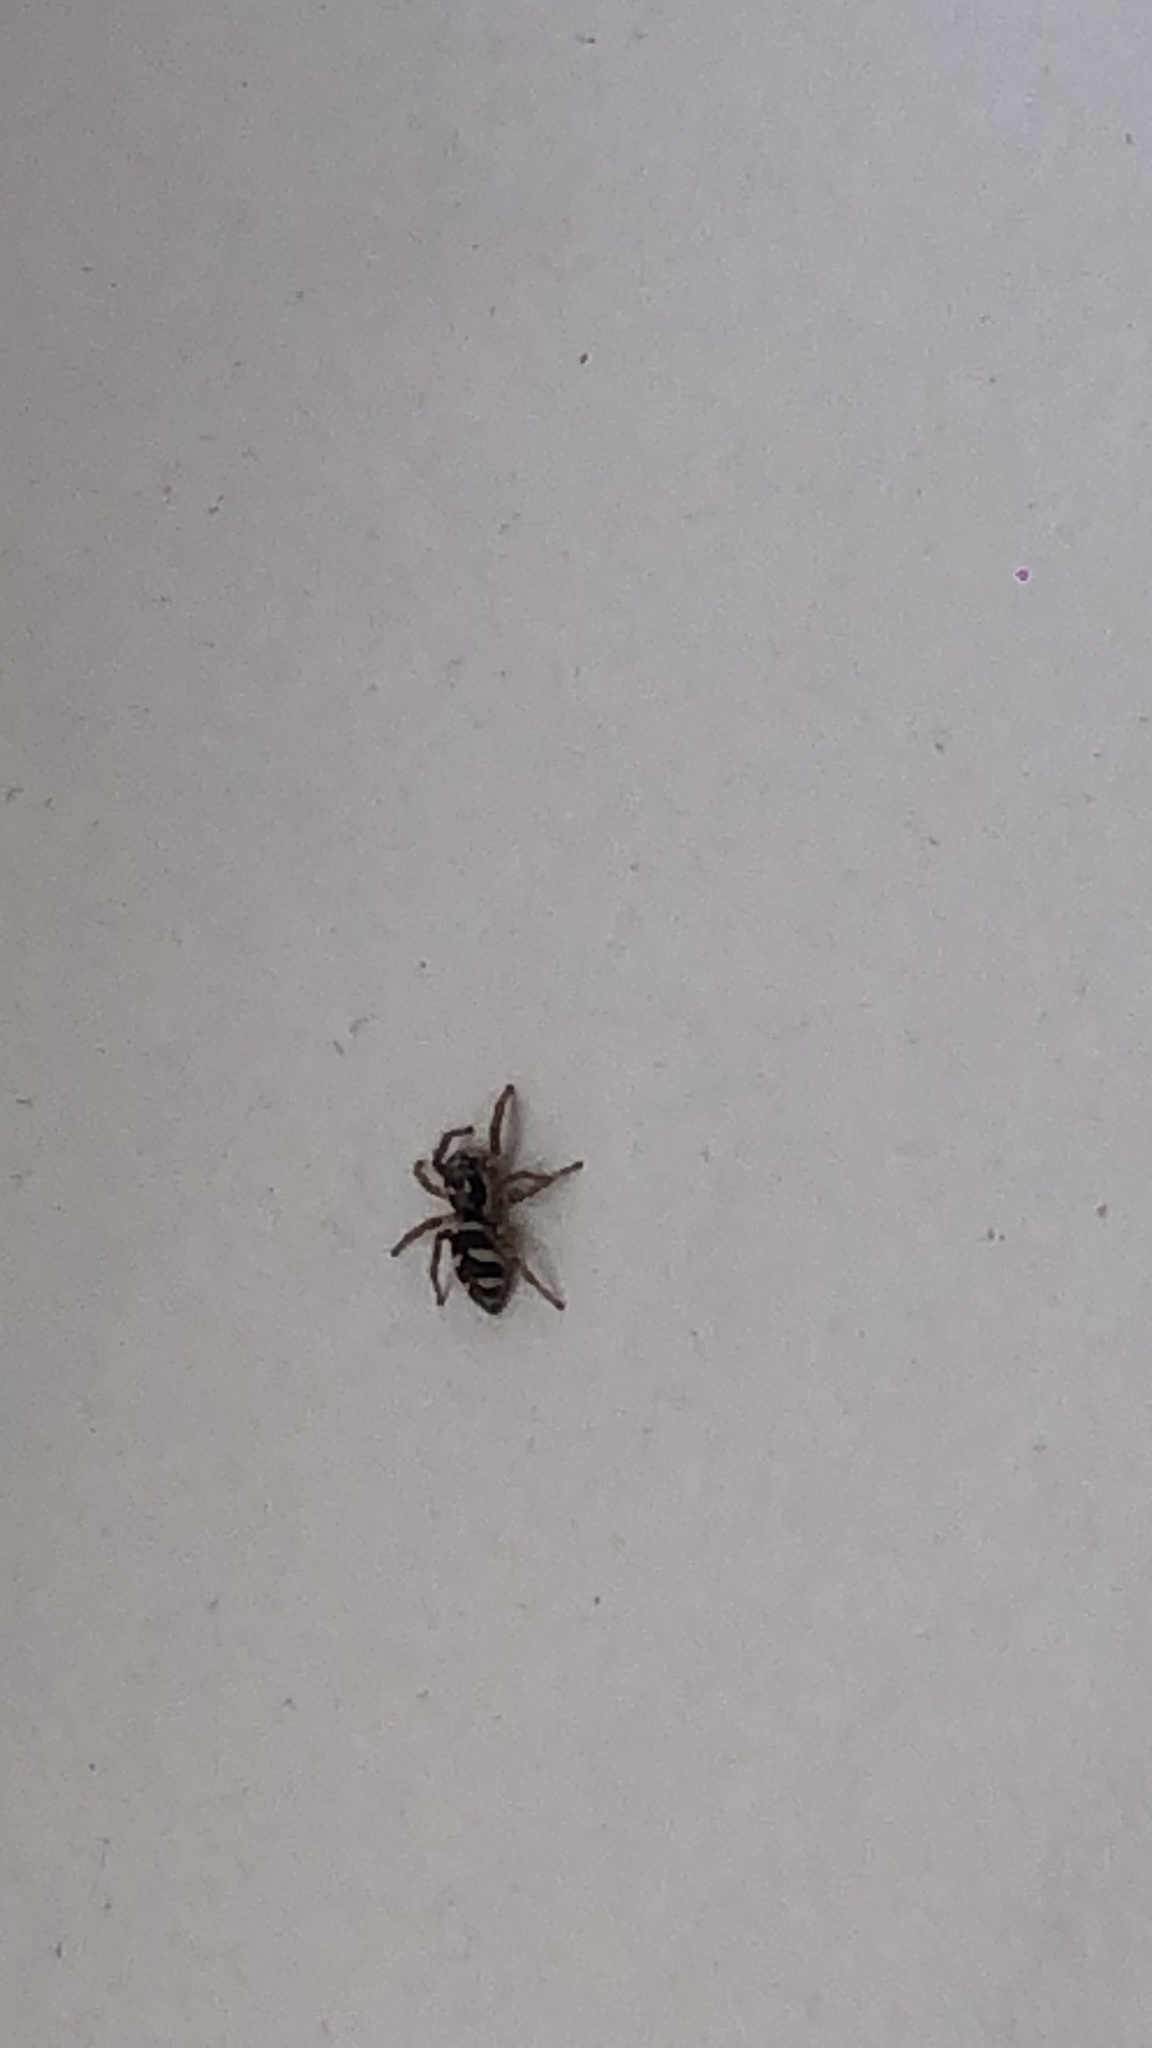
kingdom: Animalia
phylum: Arthropoda
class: Arachnida
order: Araneae
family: Salticidae
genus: Salticus
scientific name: Salticus scenicus
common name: Zebra jumper
